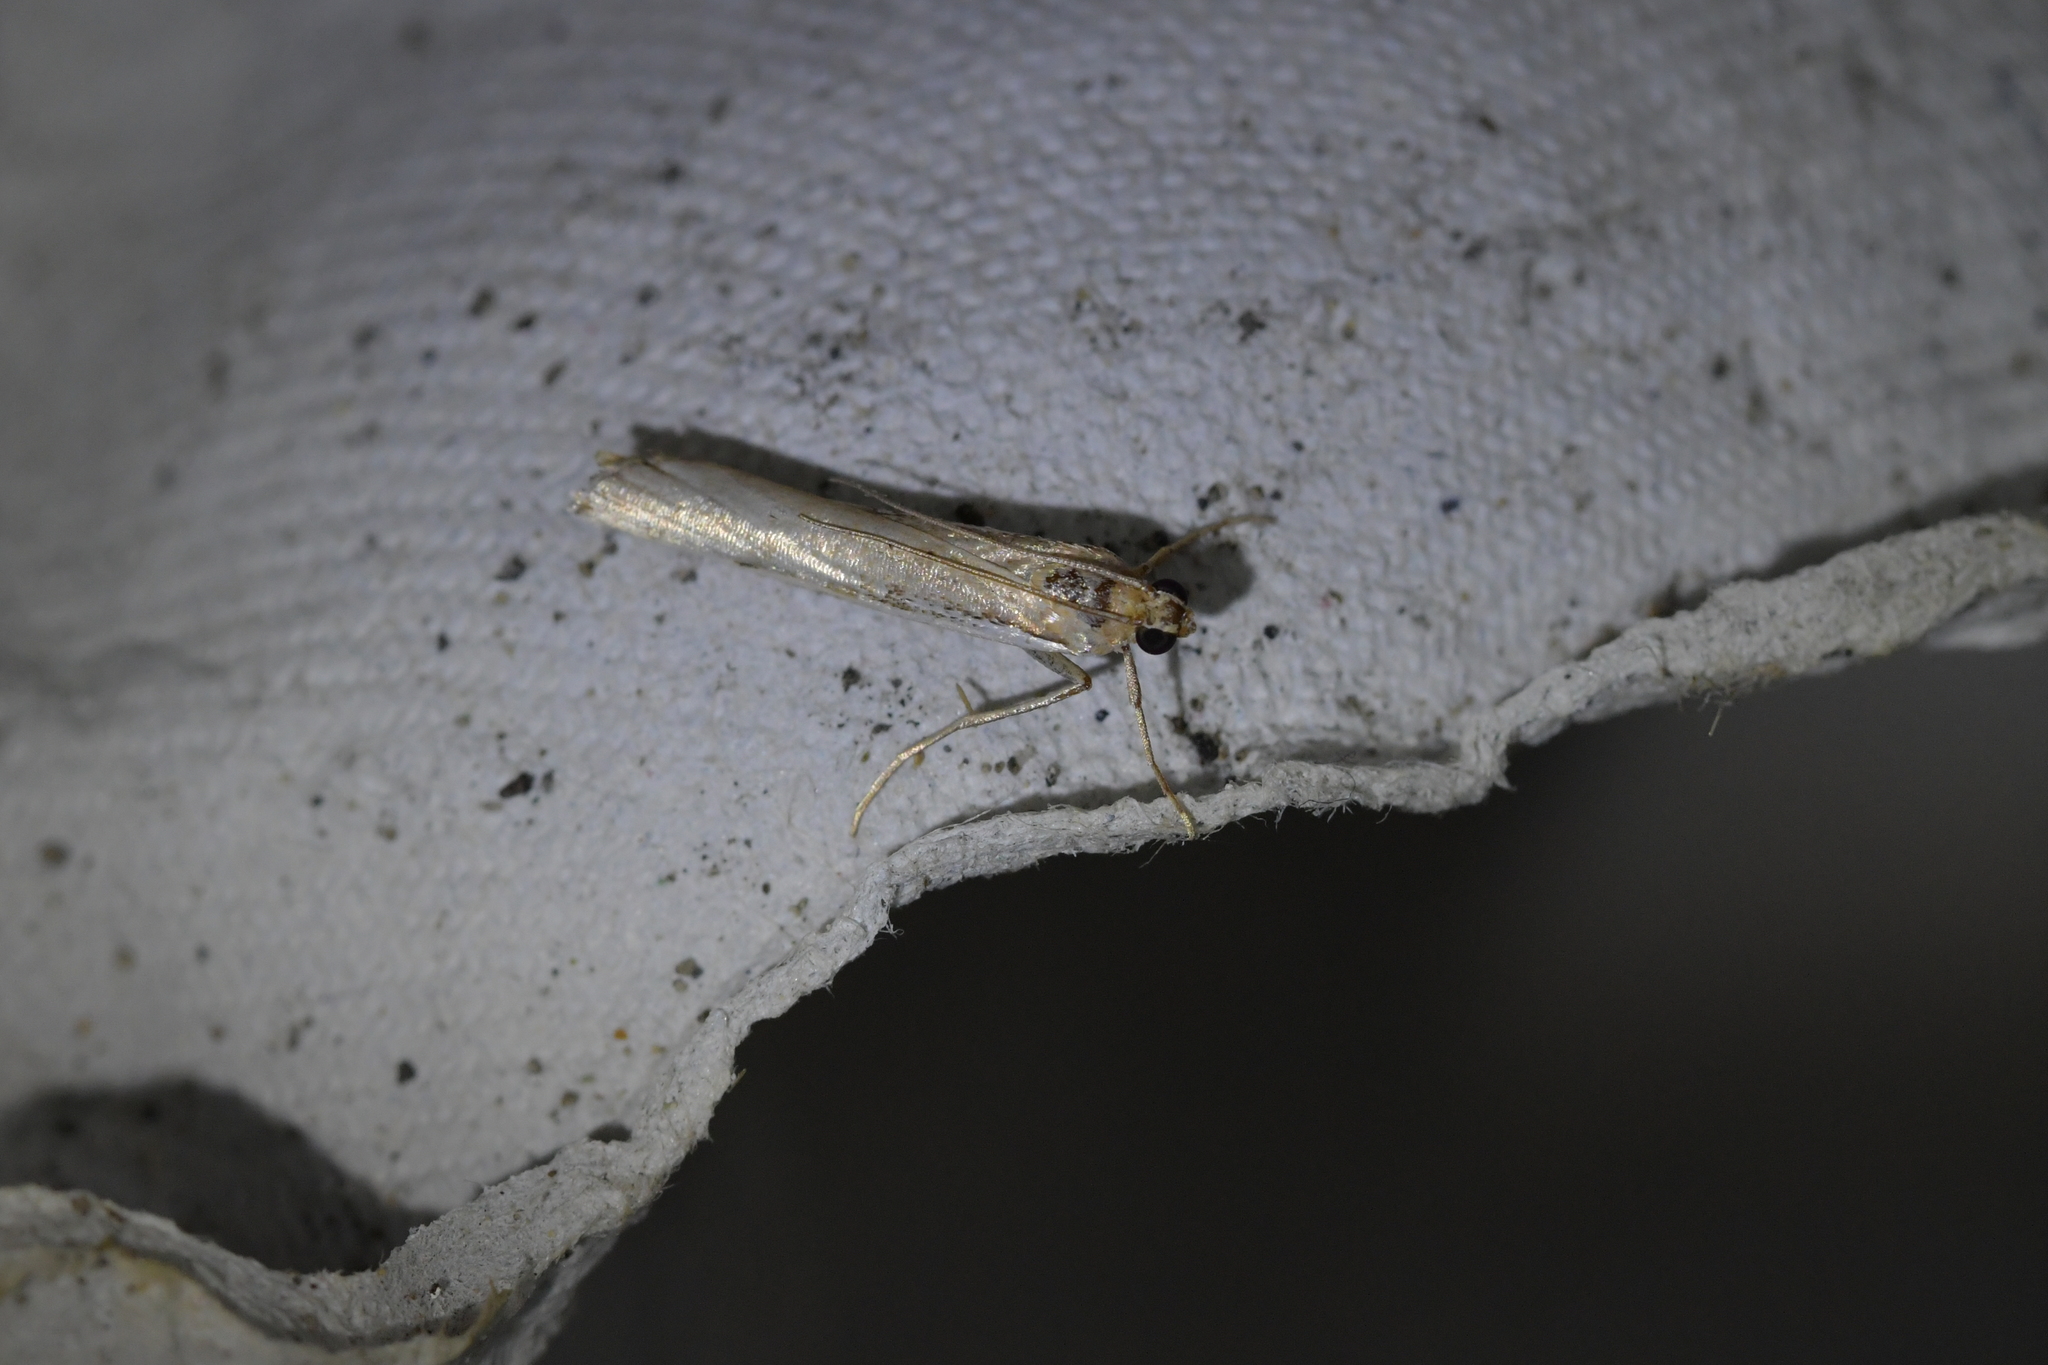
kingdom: Animalia
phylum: Arthropoda
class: Insecta
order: Lepidoptera
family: Crambidae
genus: Orocrambus
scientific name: Orocrambus flexuosellus
